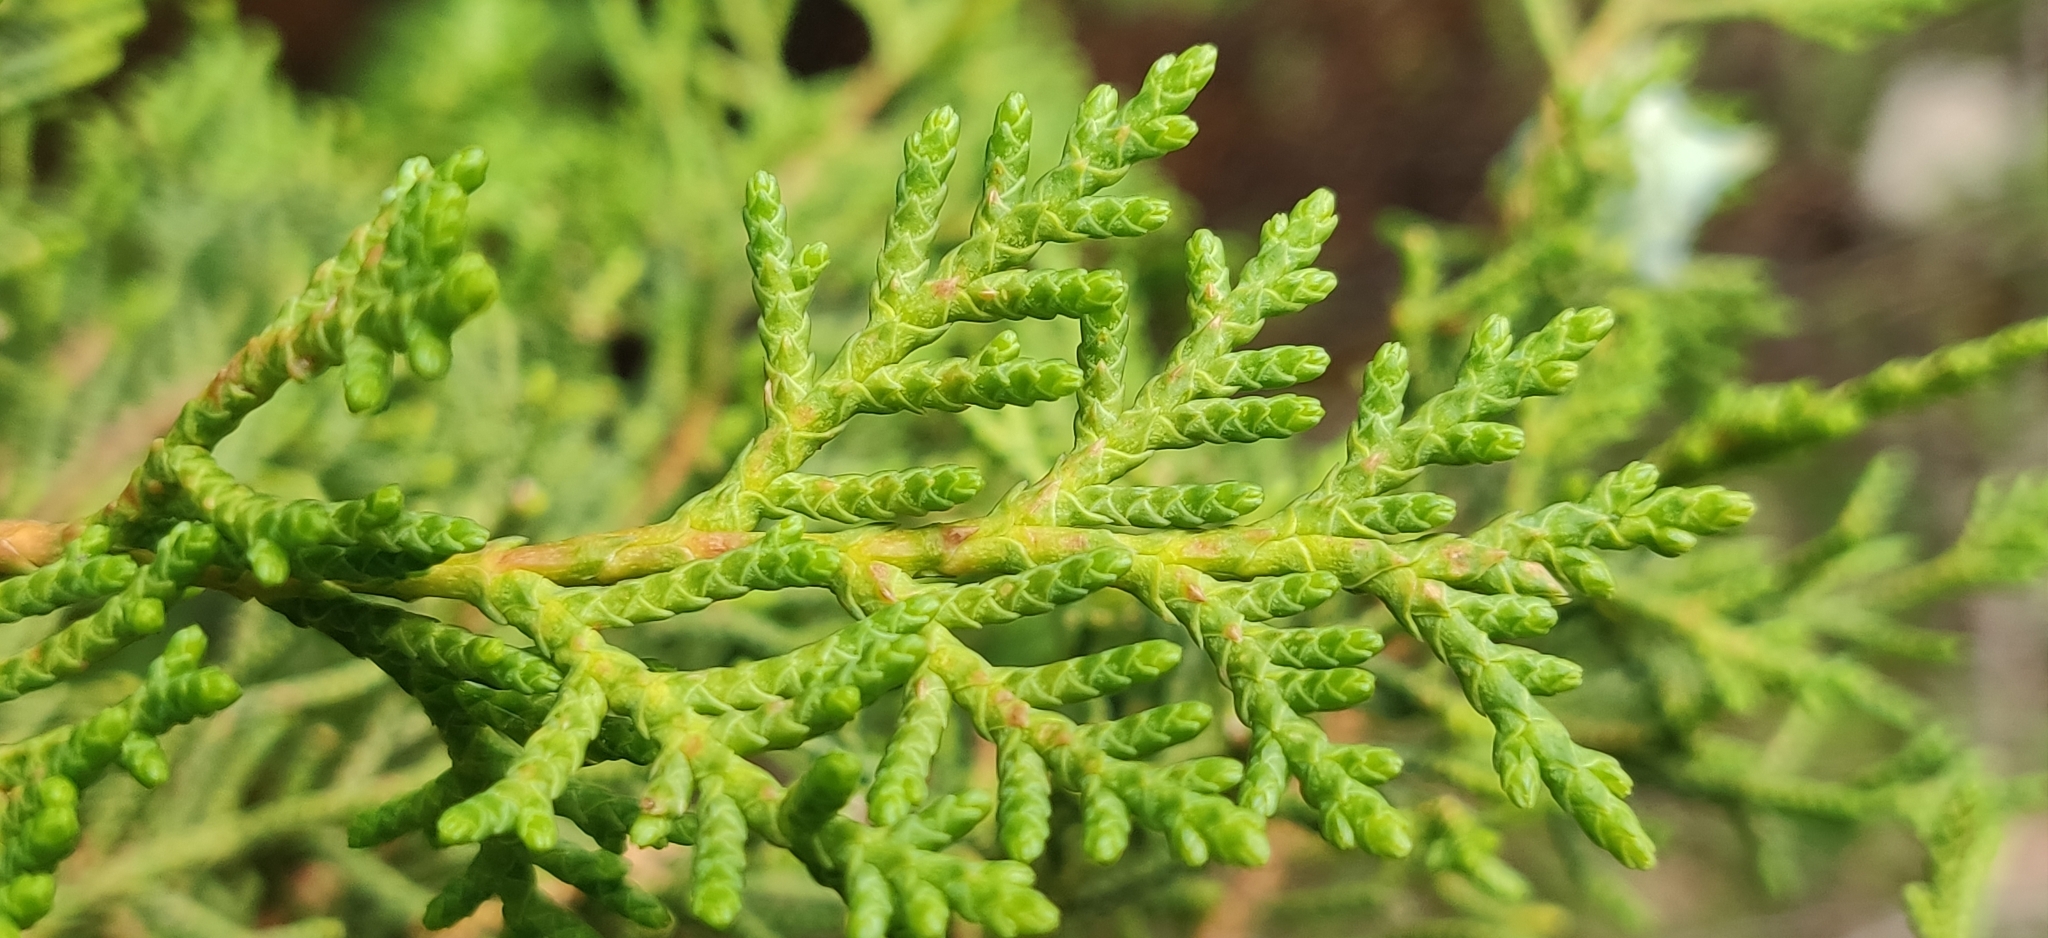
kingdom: Plantae
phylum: Tracheophyta
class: Pinopsida
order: Pinales
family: Cupressaceae
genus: Cupressus
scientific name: Cupressus torulosa
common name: Himalayan cypress
